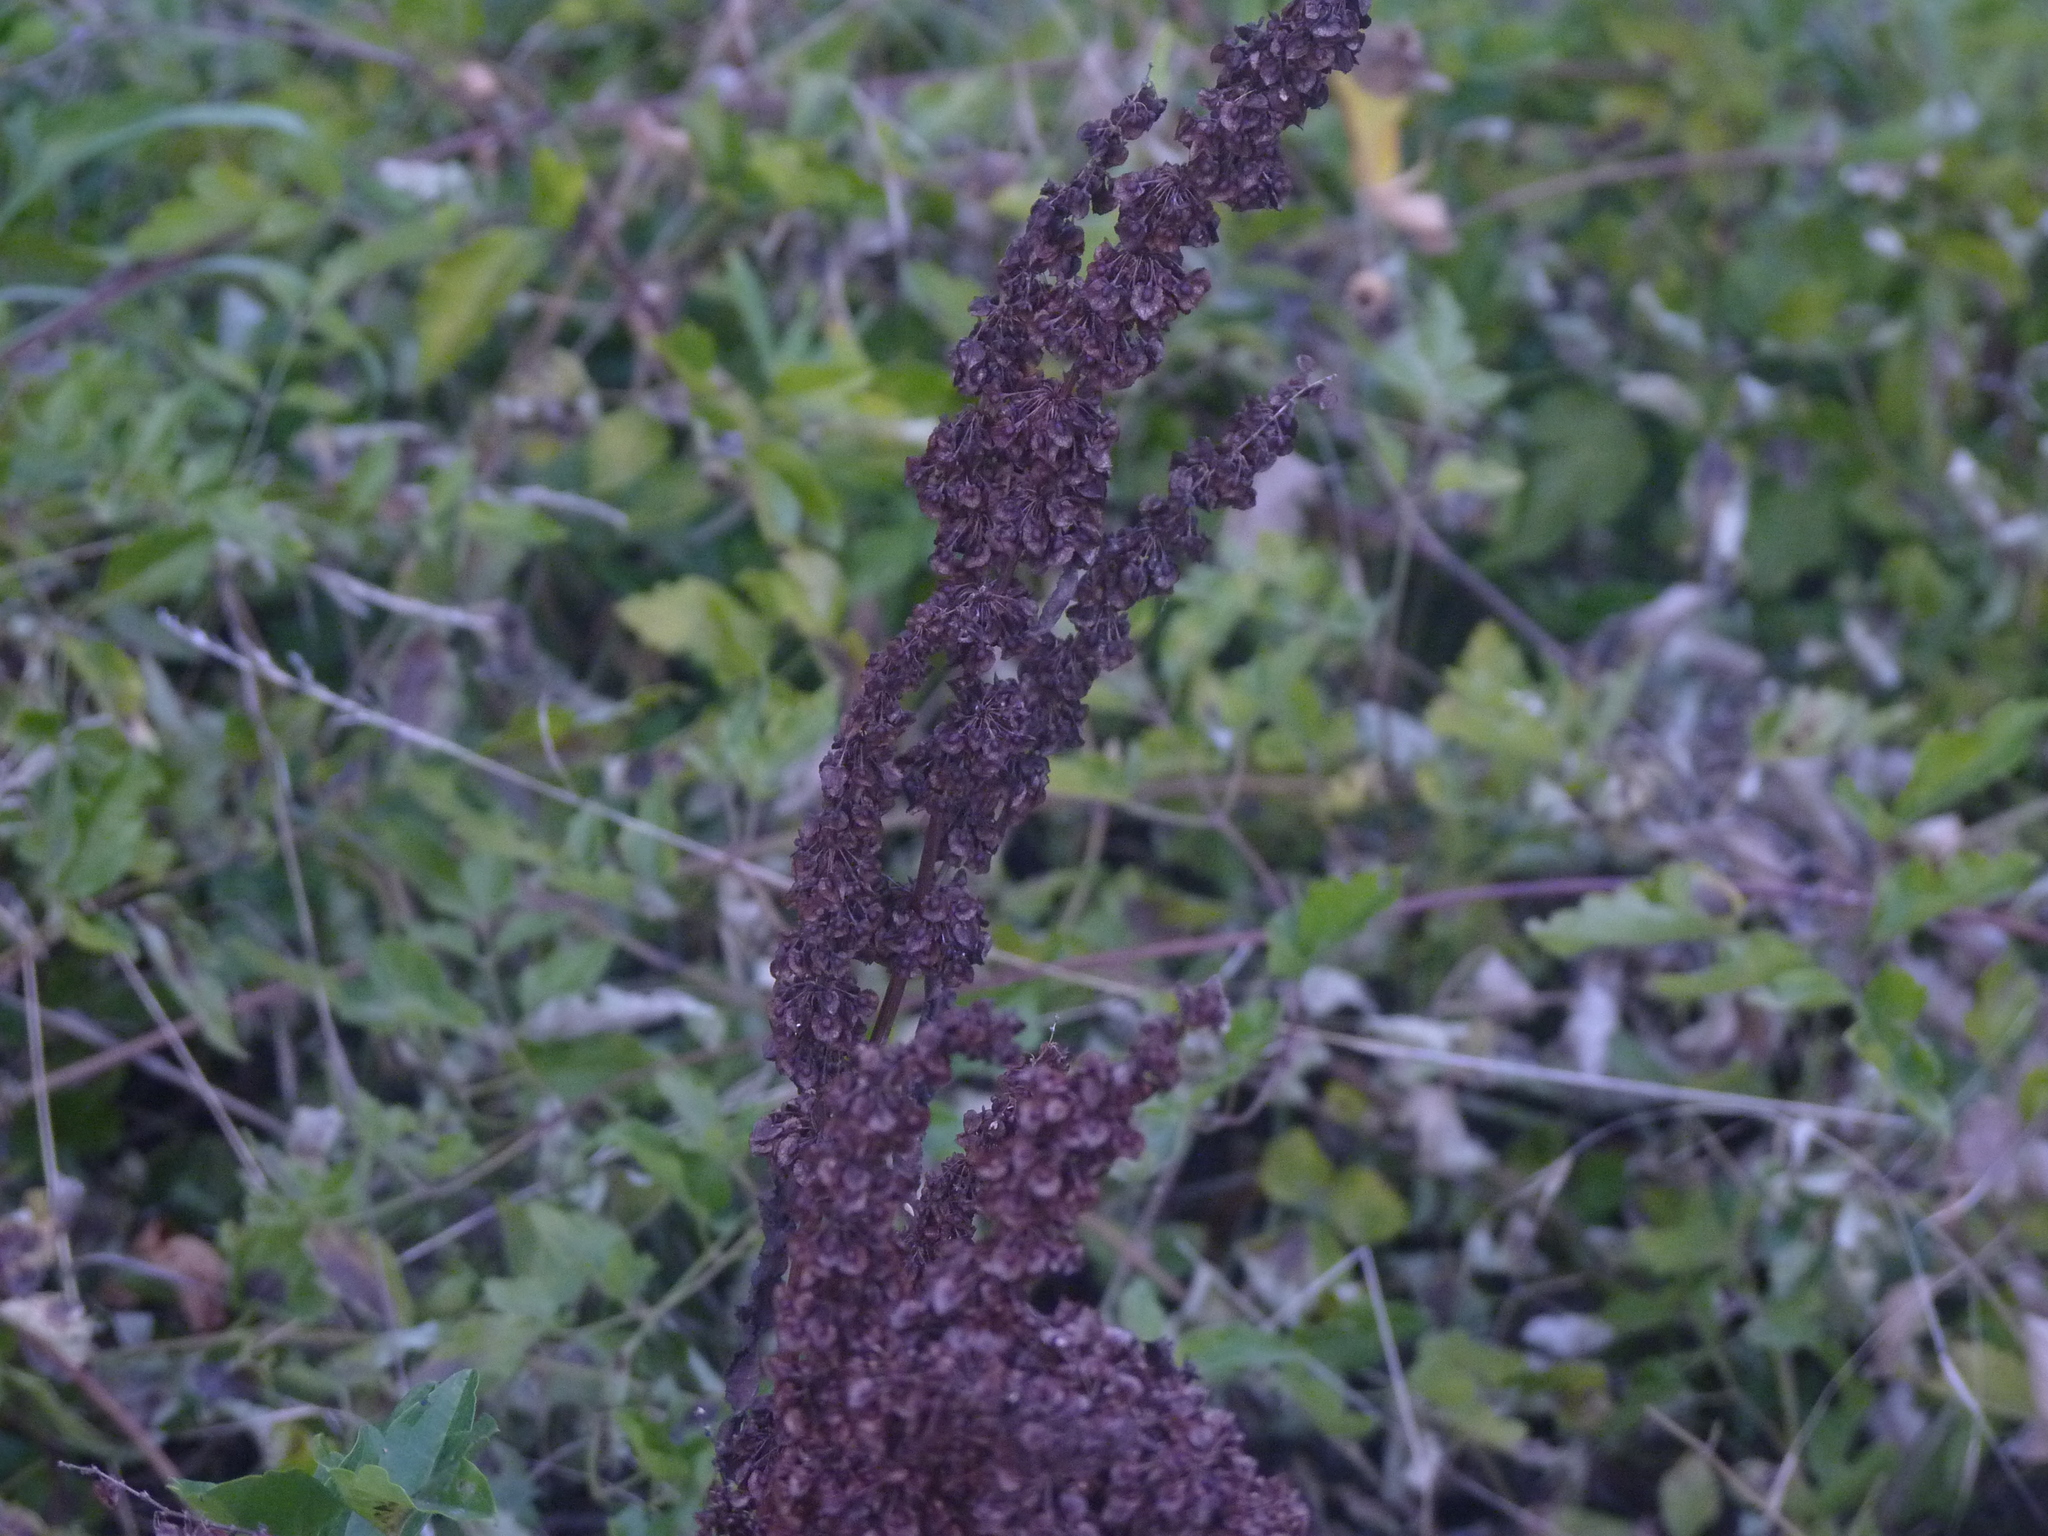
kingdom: Plantae
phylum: Tracheophyta
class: Magnoliopsida
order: Caryophyllales
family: Polygonaceae
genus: Rumex
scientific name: Rumex crispus
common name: Curled dock
